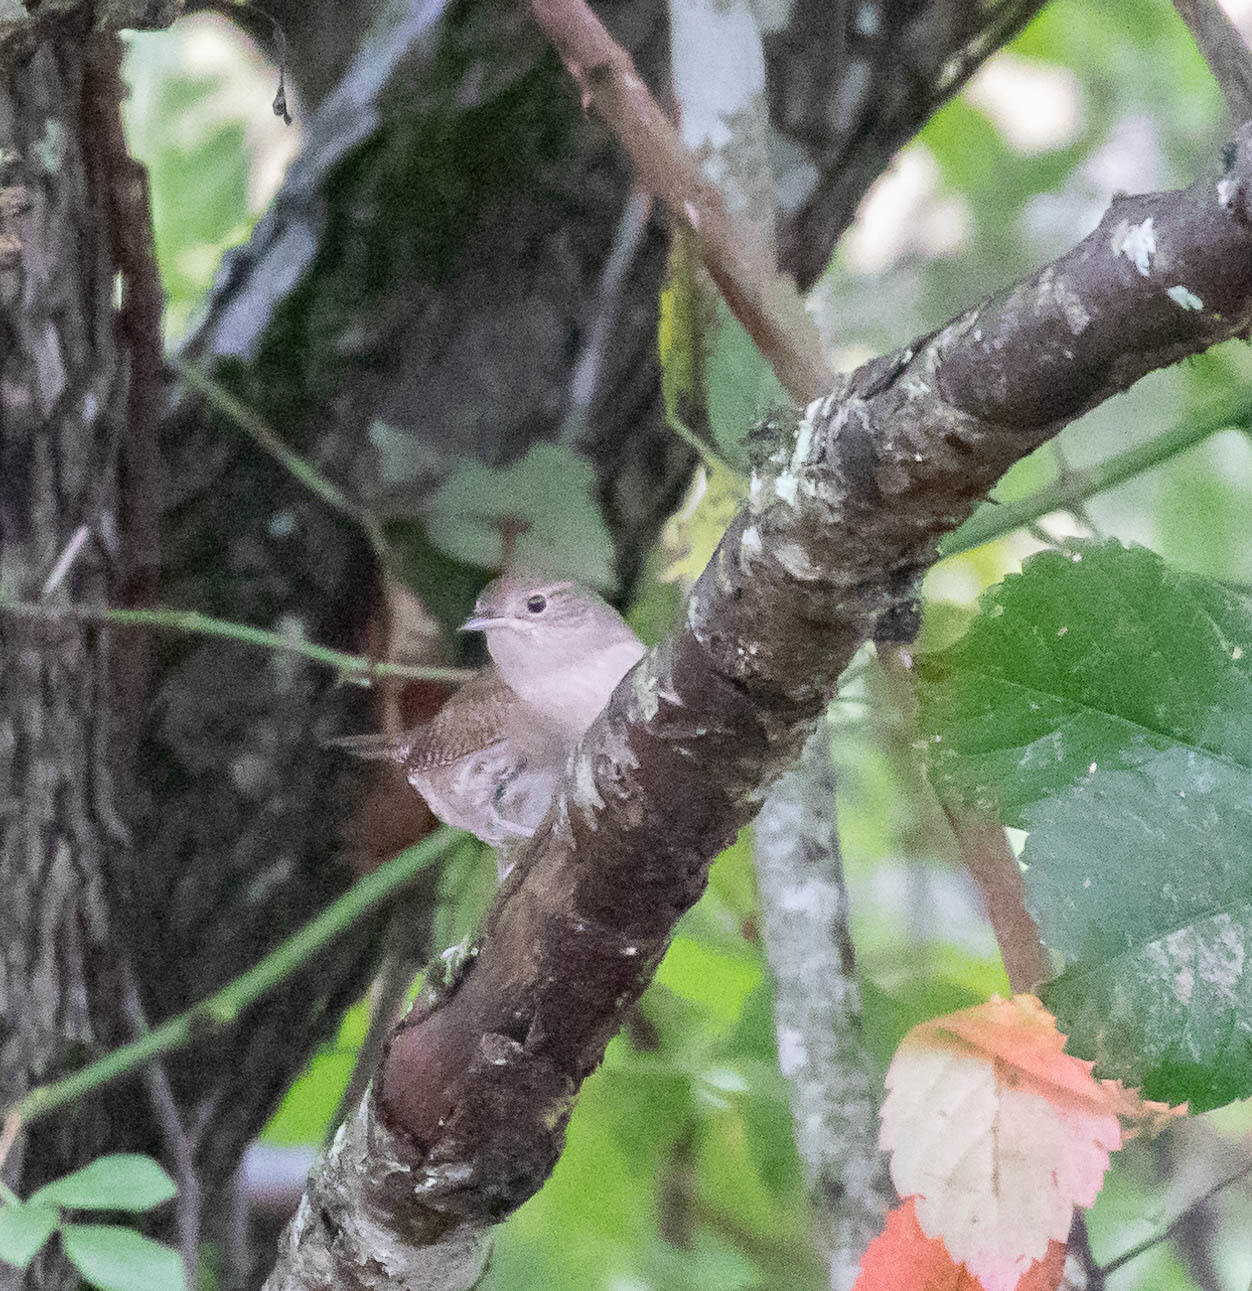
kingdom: Animalia
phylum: Chordata
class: Aves
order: Passeriformes
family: Troglodytidae
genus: Troglodytes
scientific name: Troglodytes aedon
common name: House wren
